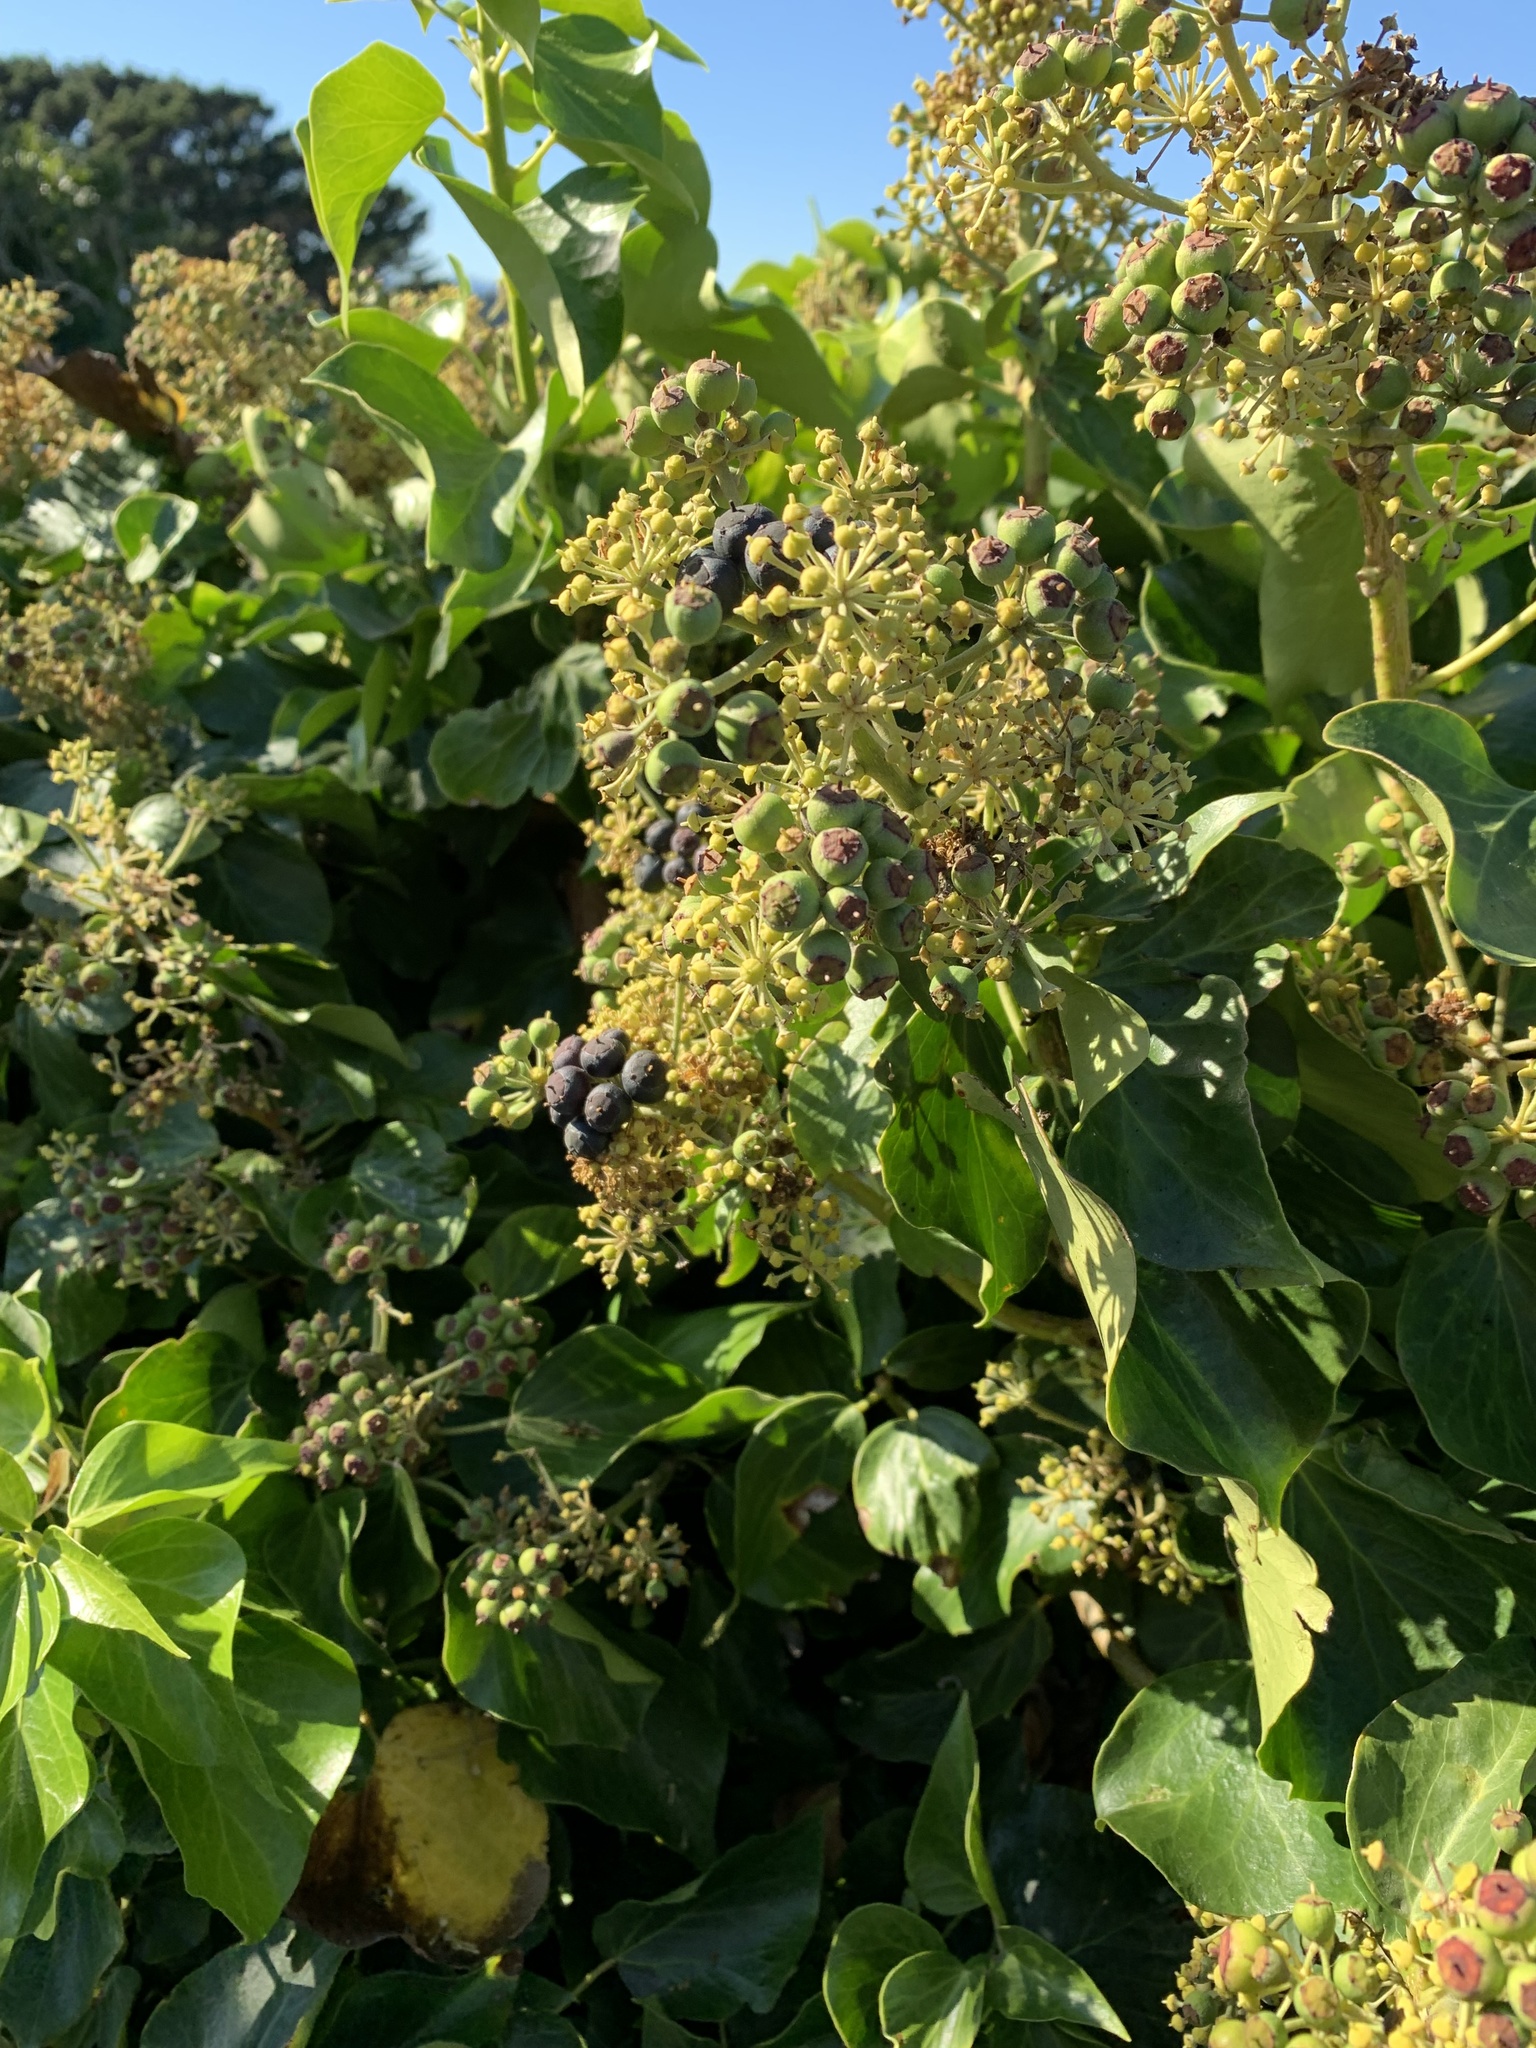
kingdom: Plantae
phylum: Tracheophyta
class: Magnoliopsida
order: Apiales
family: Araliaceae
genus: Hedera
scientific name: Hedera helix
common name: Ivy
